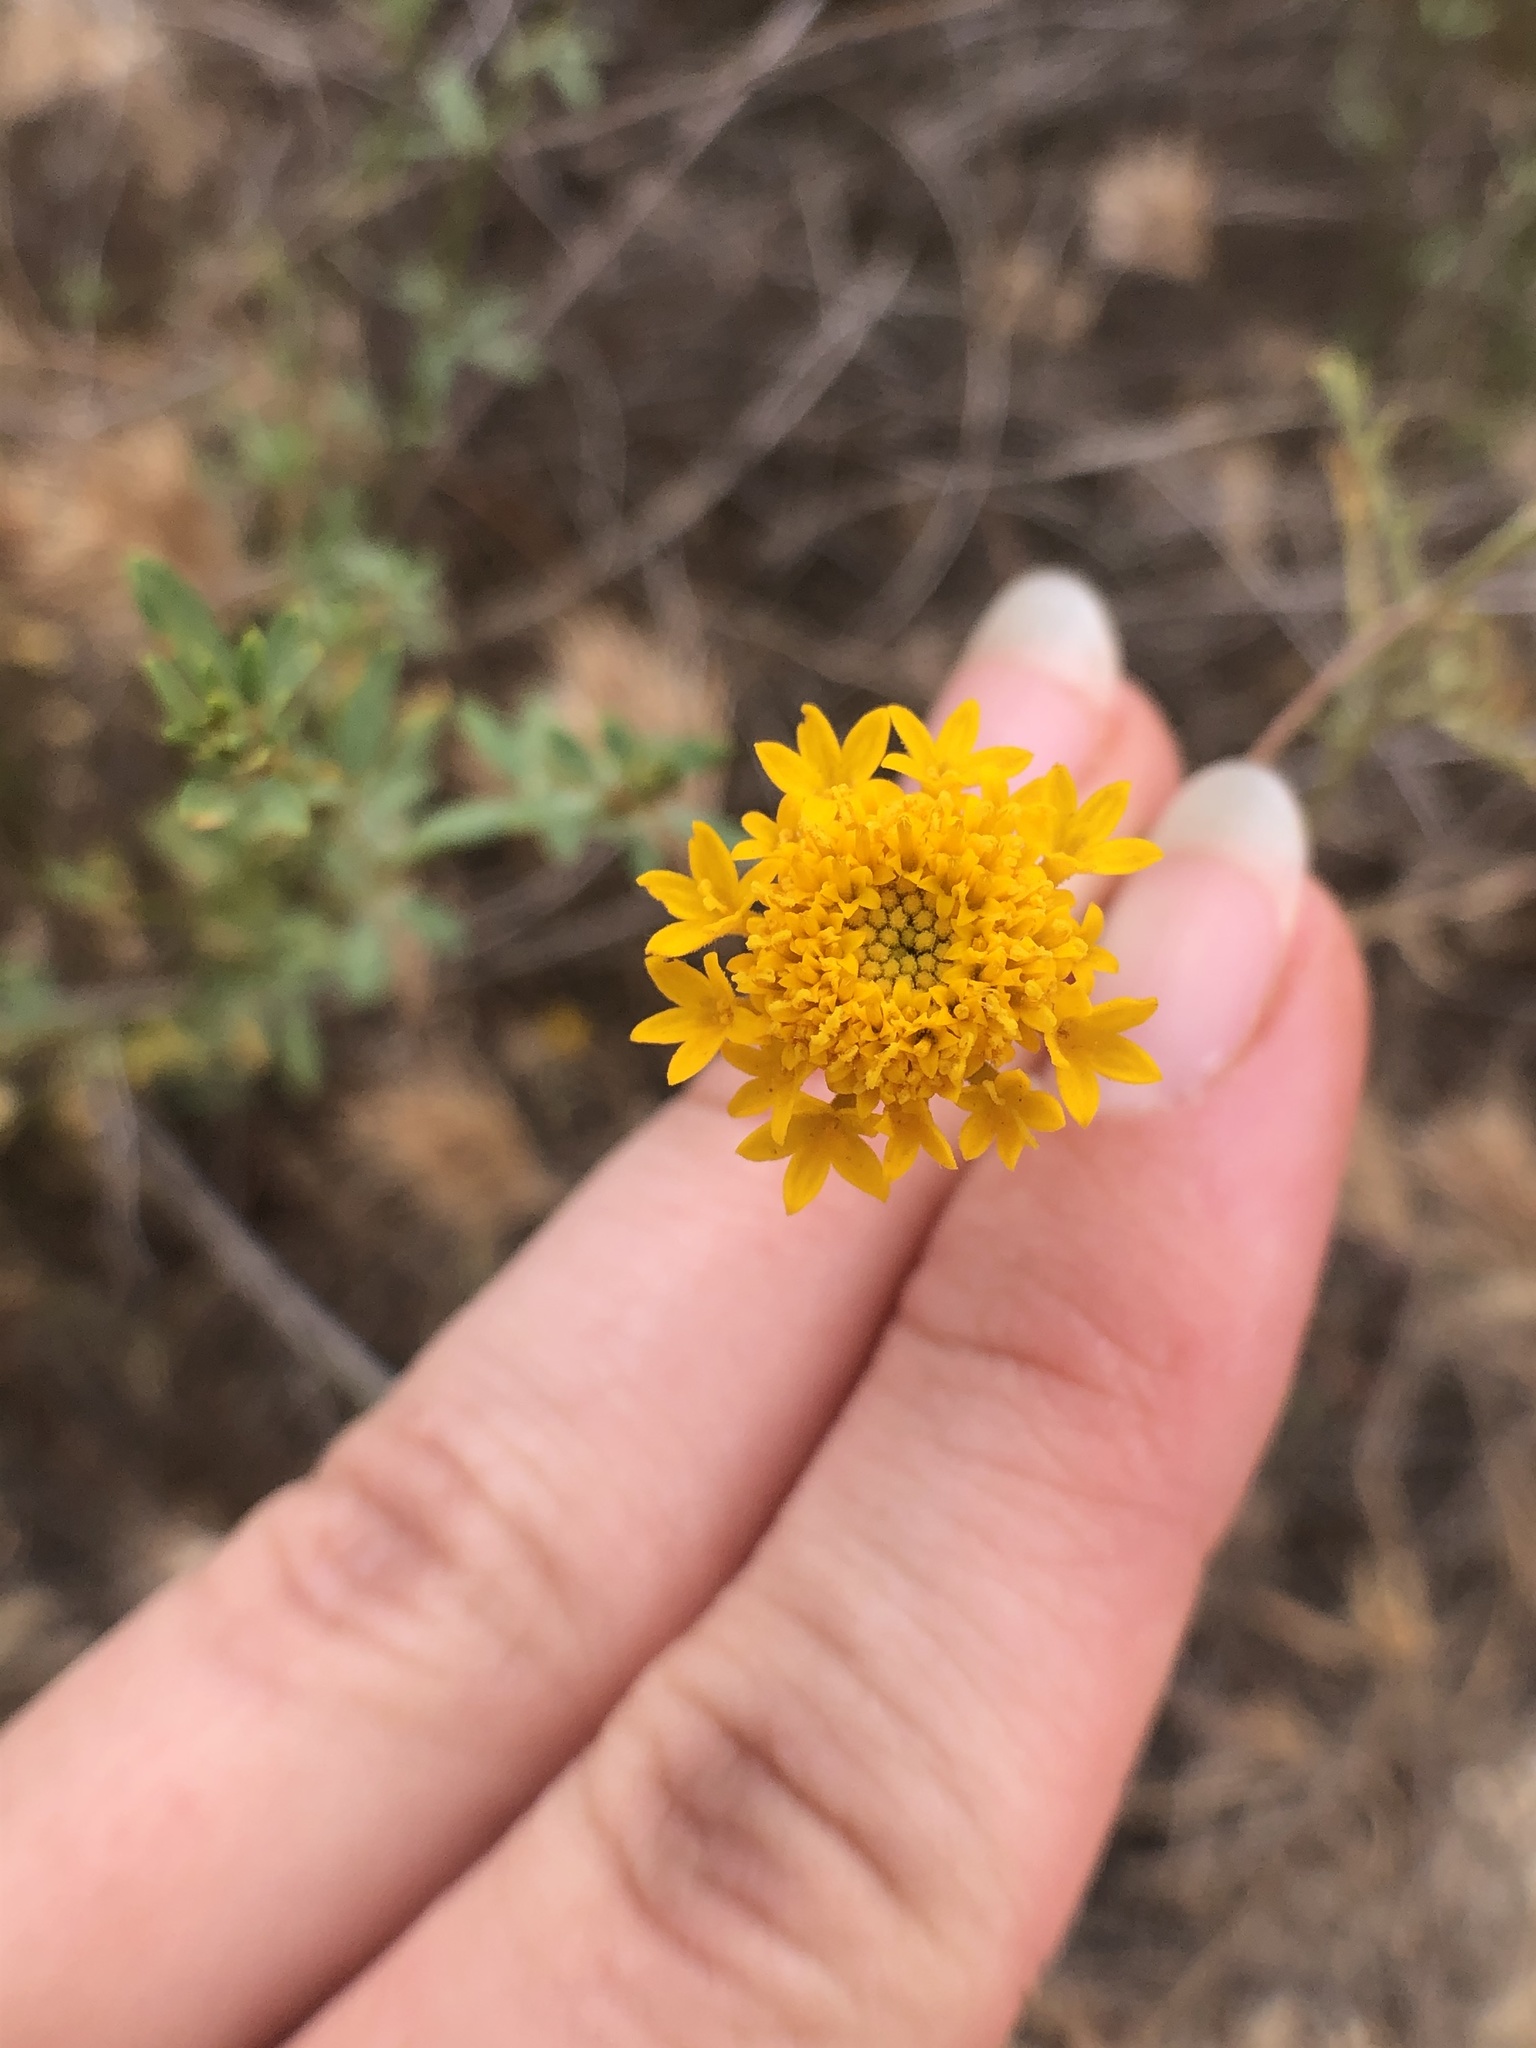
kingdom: Plantae
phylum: Tracheophyta
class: Magnoliopsida
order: Asterales
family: Asteraceae
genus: Chaenactis
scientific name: Chaenactis glabriuscula
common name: Yellow pincushion
